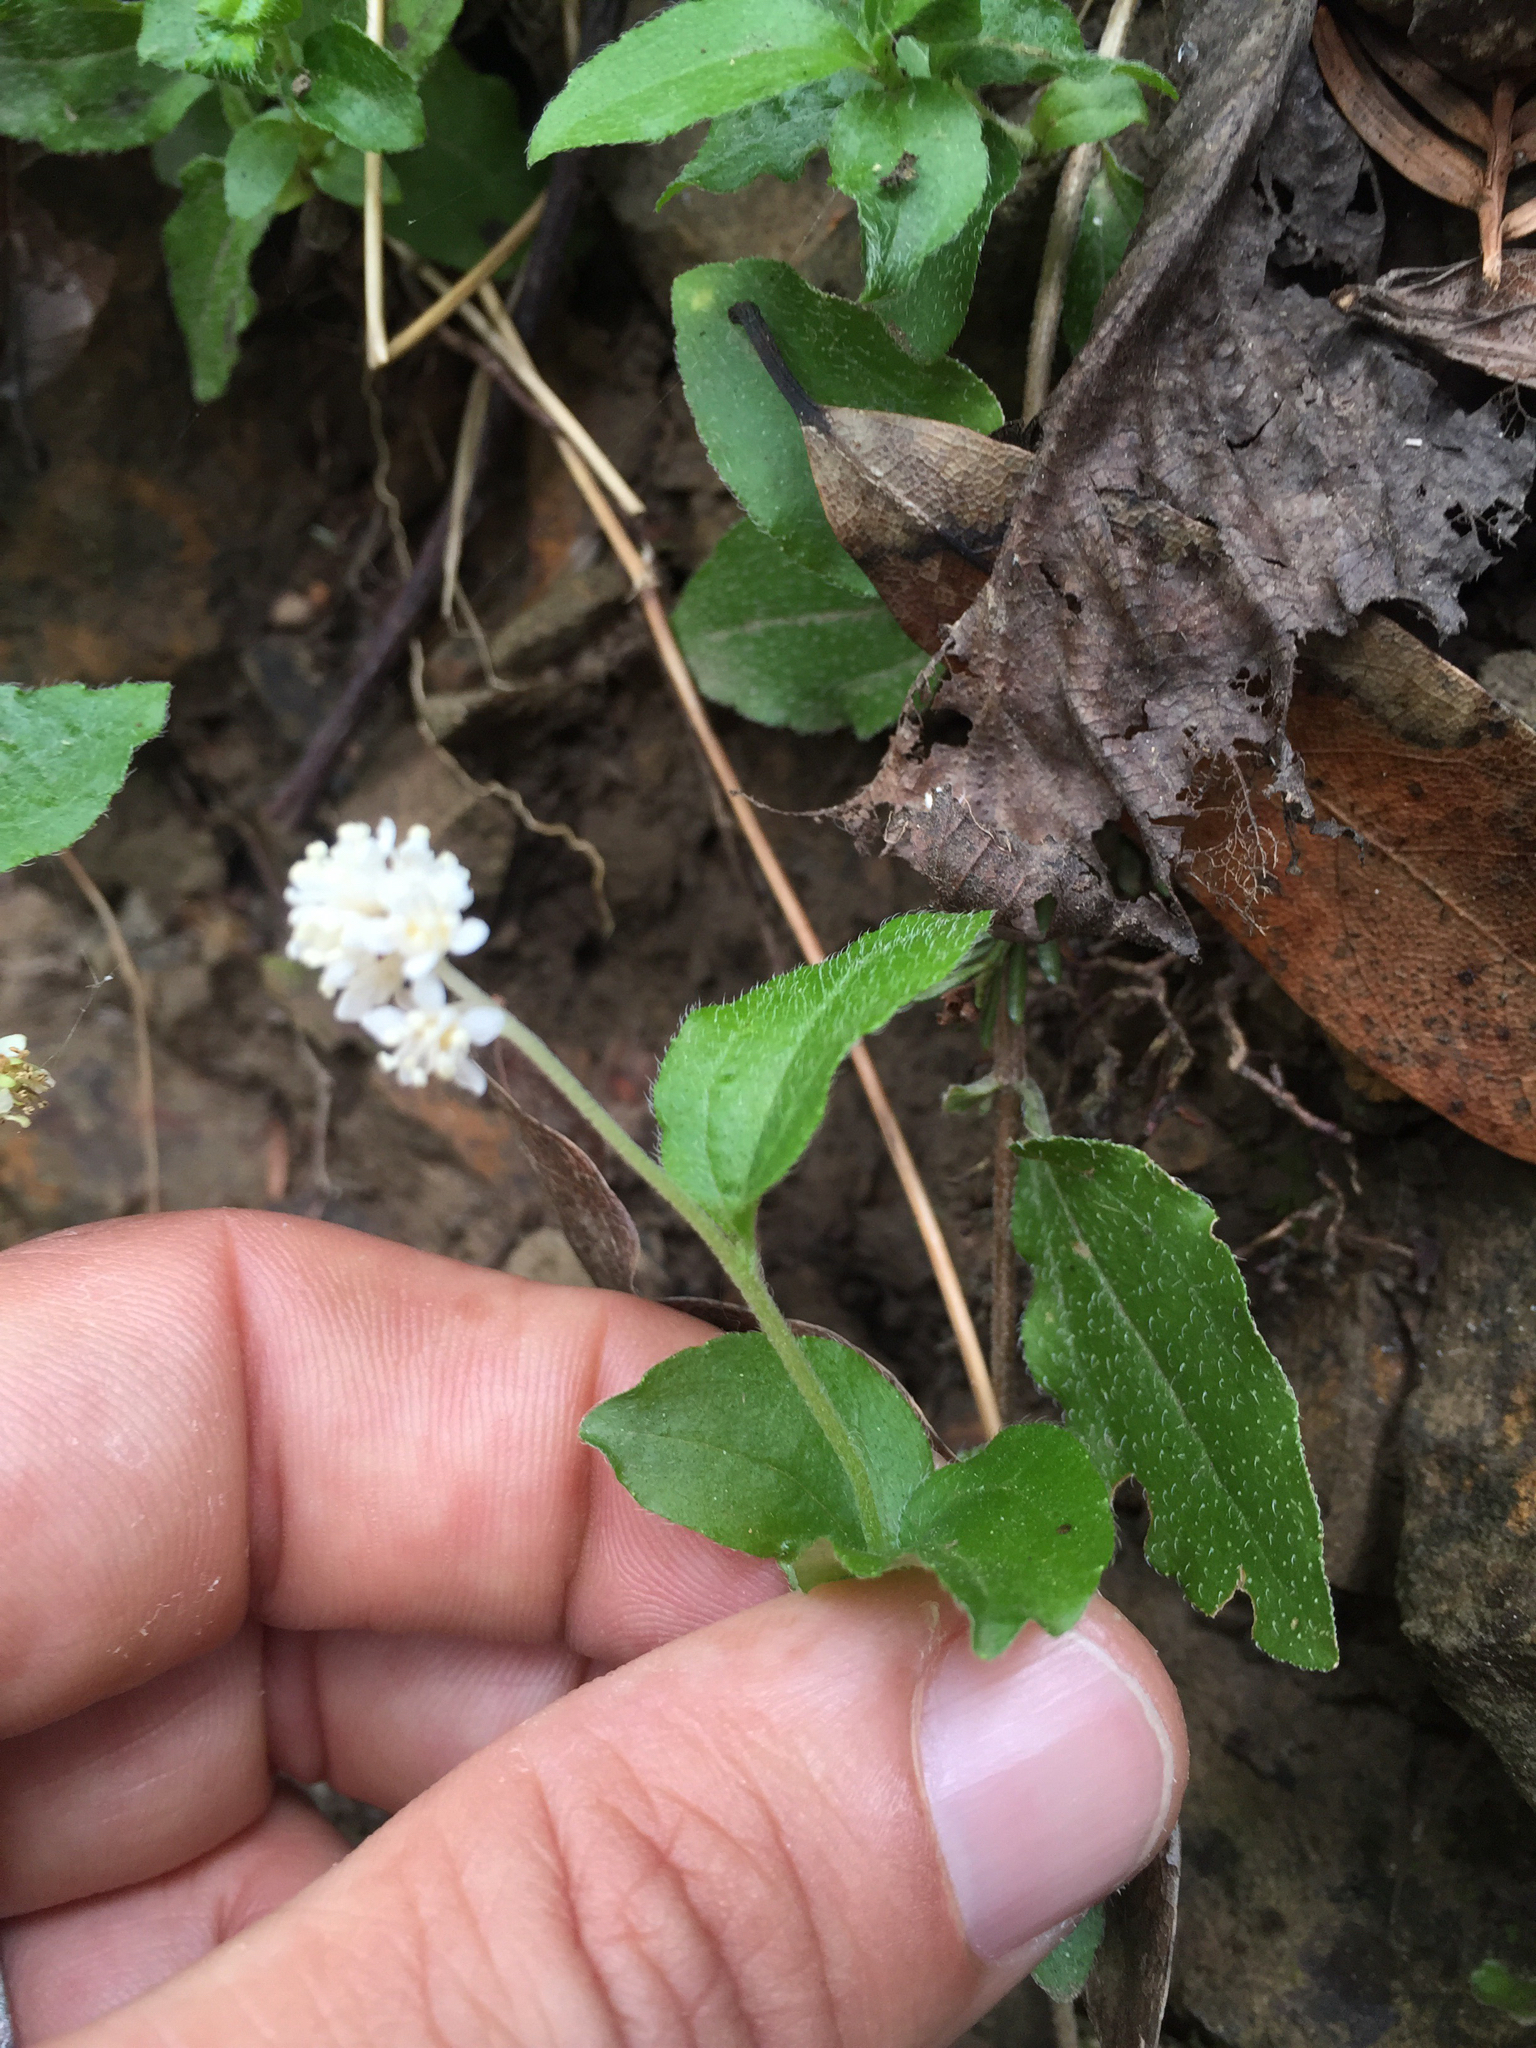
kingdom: Plantae
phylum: Tracheophyta
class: Magnoliopsida
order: Cornales
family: Hydrangeaceae
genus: Whipplea
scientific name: Whipplea modesta
